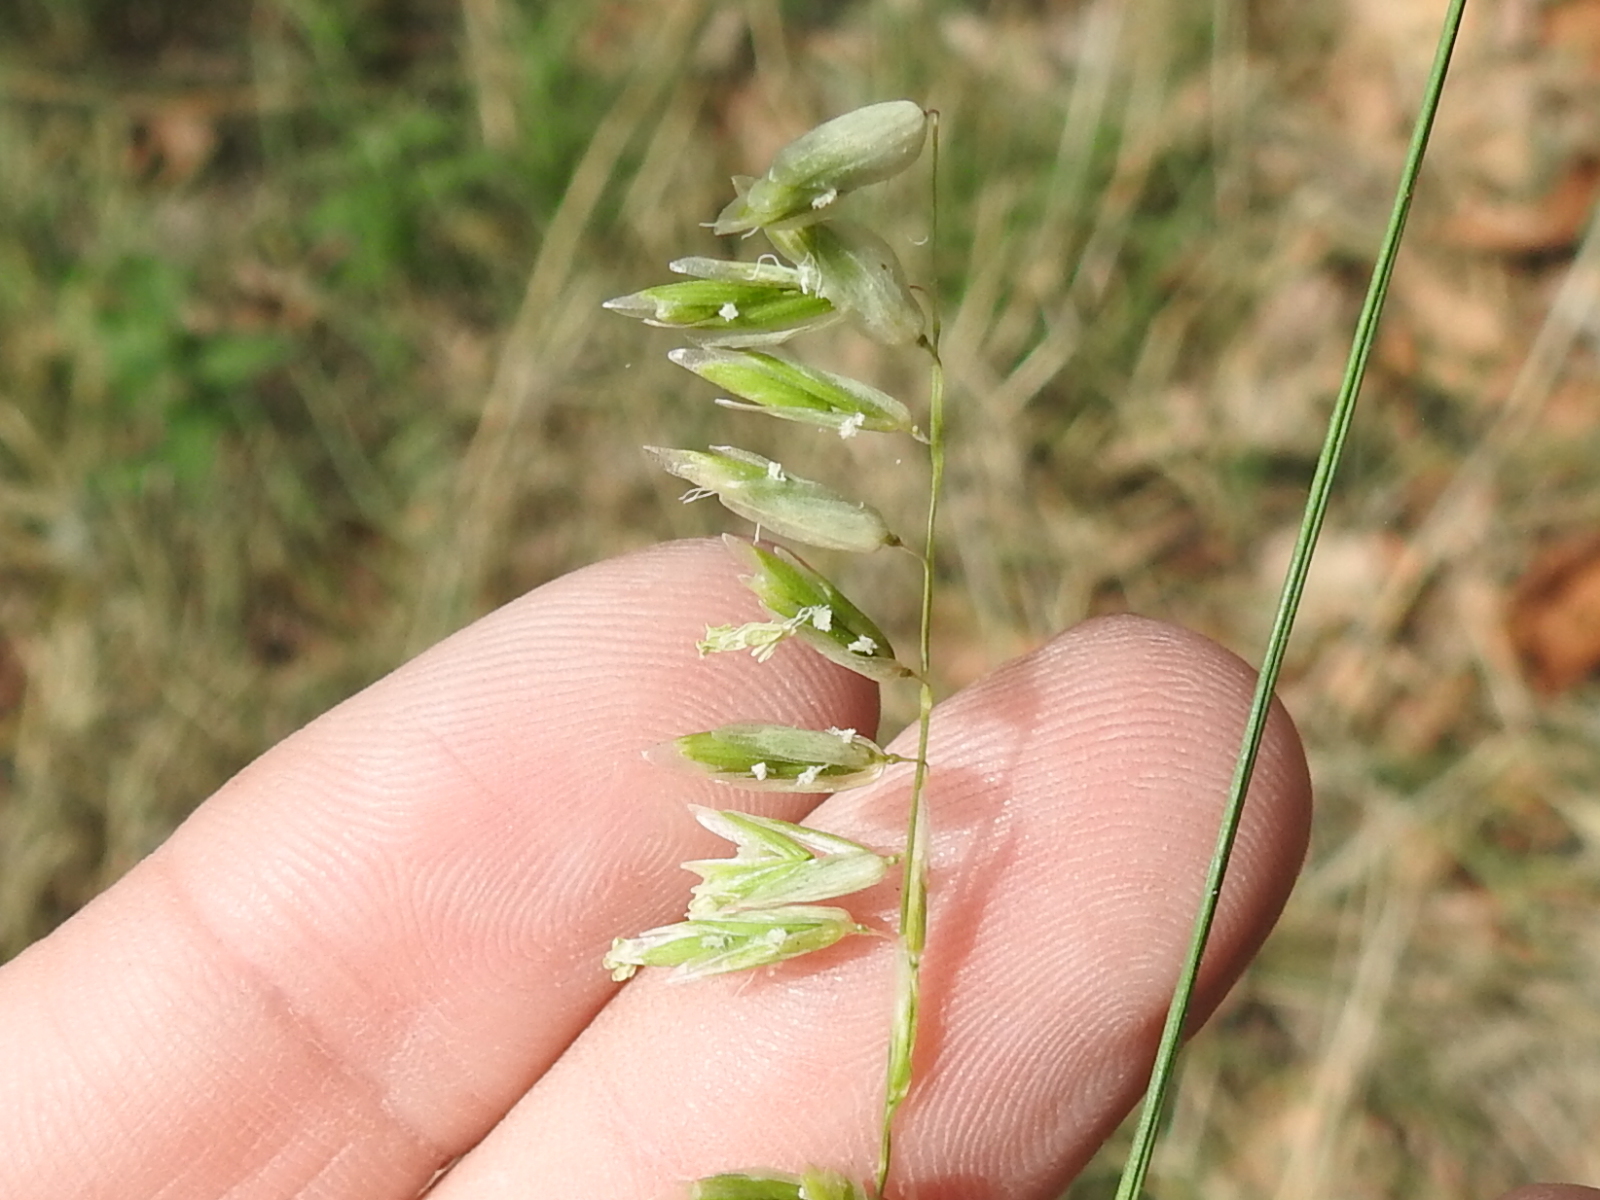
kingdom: Plantae
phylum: Tracheophyta
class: Liliopsida
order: Poales
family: Poaceae
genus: Melica
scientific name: Melica nitens
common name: Three-flower melic
